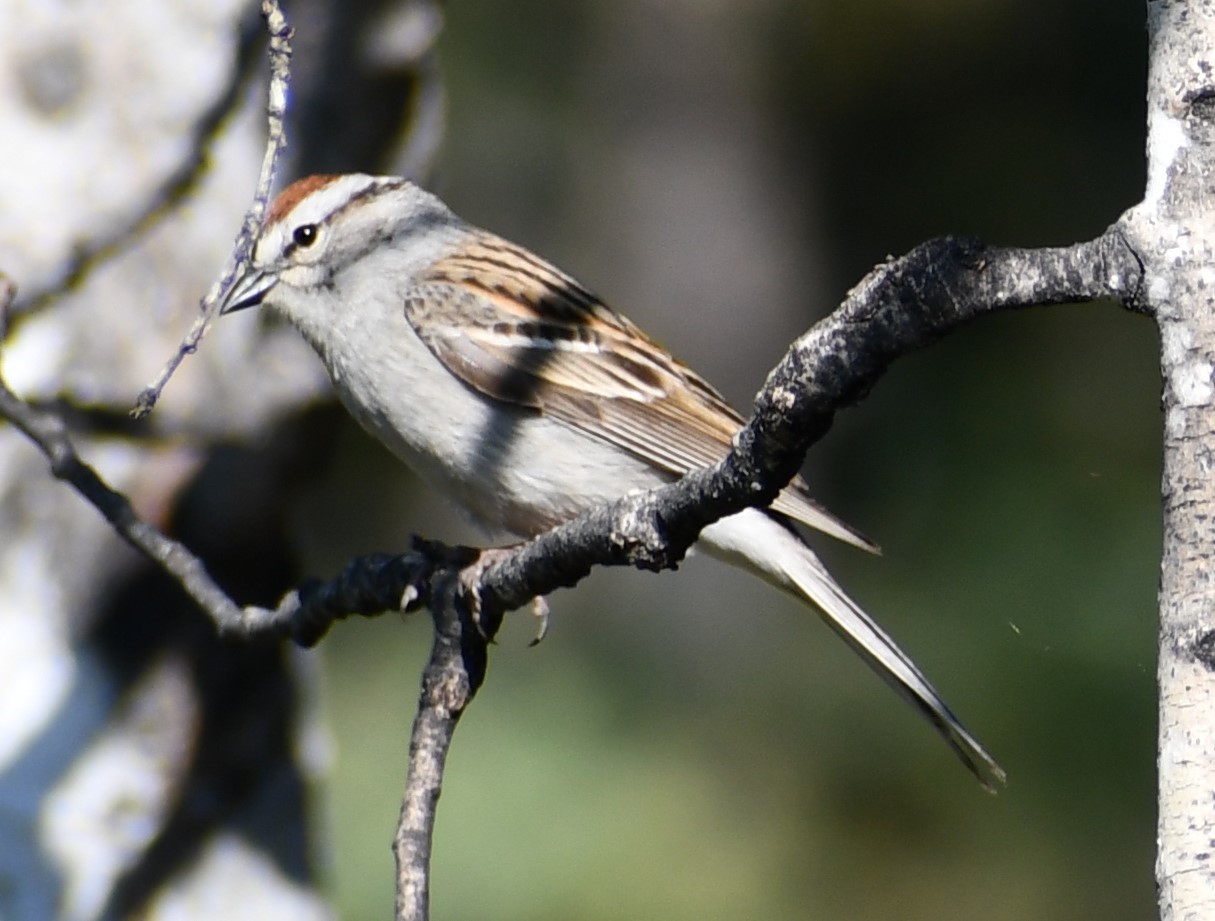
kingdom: Animalia
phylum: Chordata
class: Aves
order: Passeriformes
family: Passerellidae
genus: Spizella
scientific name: Spizella passerina
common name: Chipping sparrow
